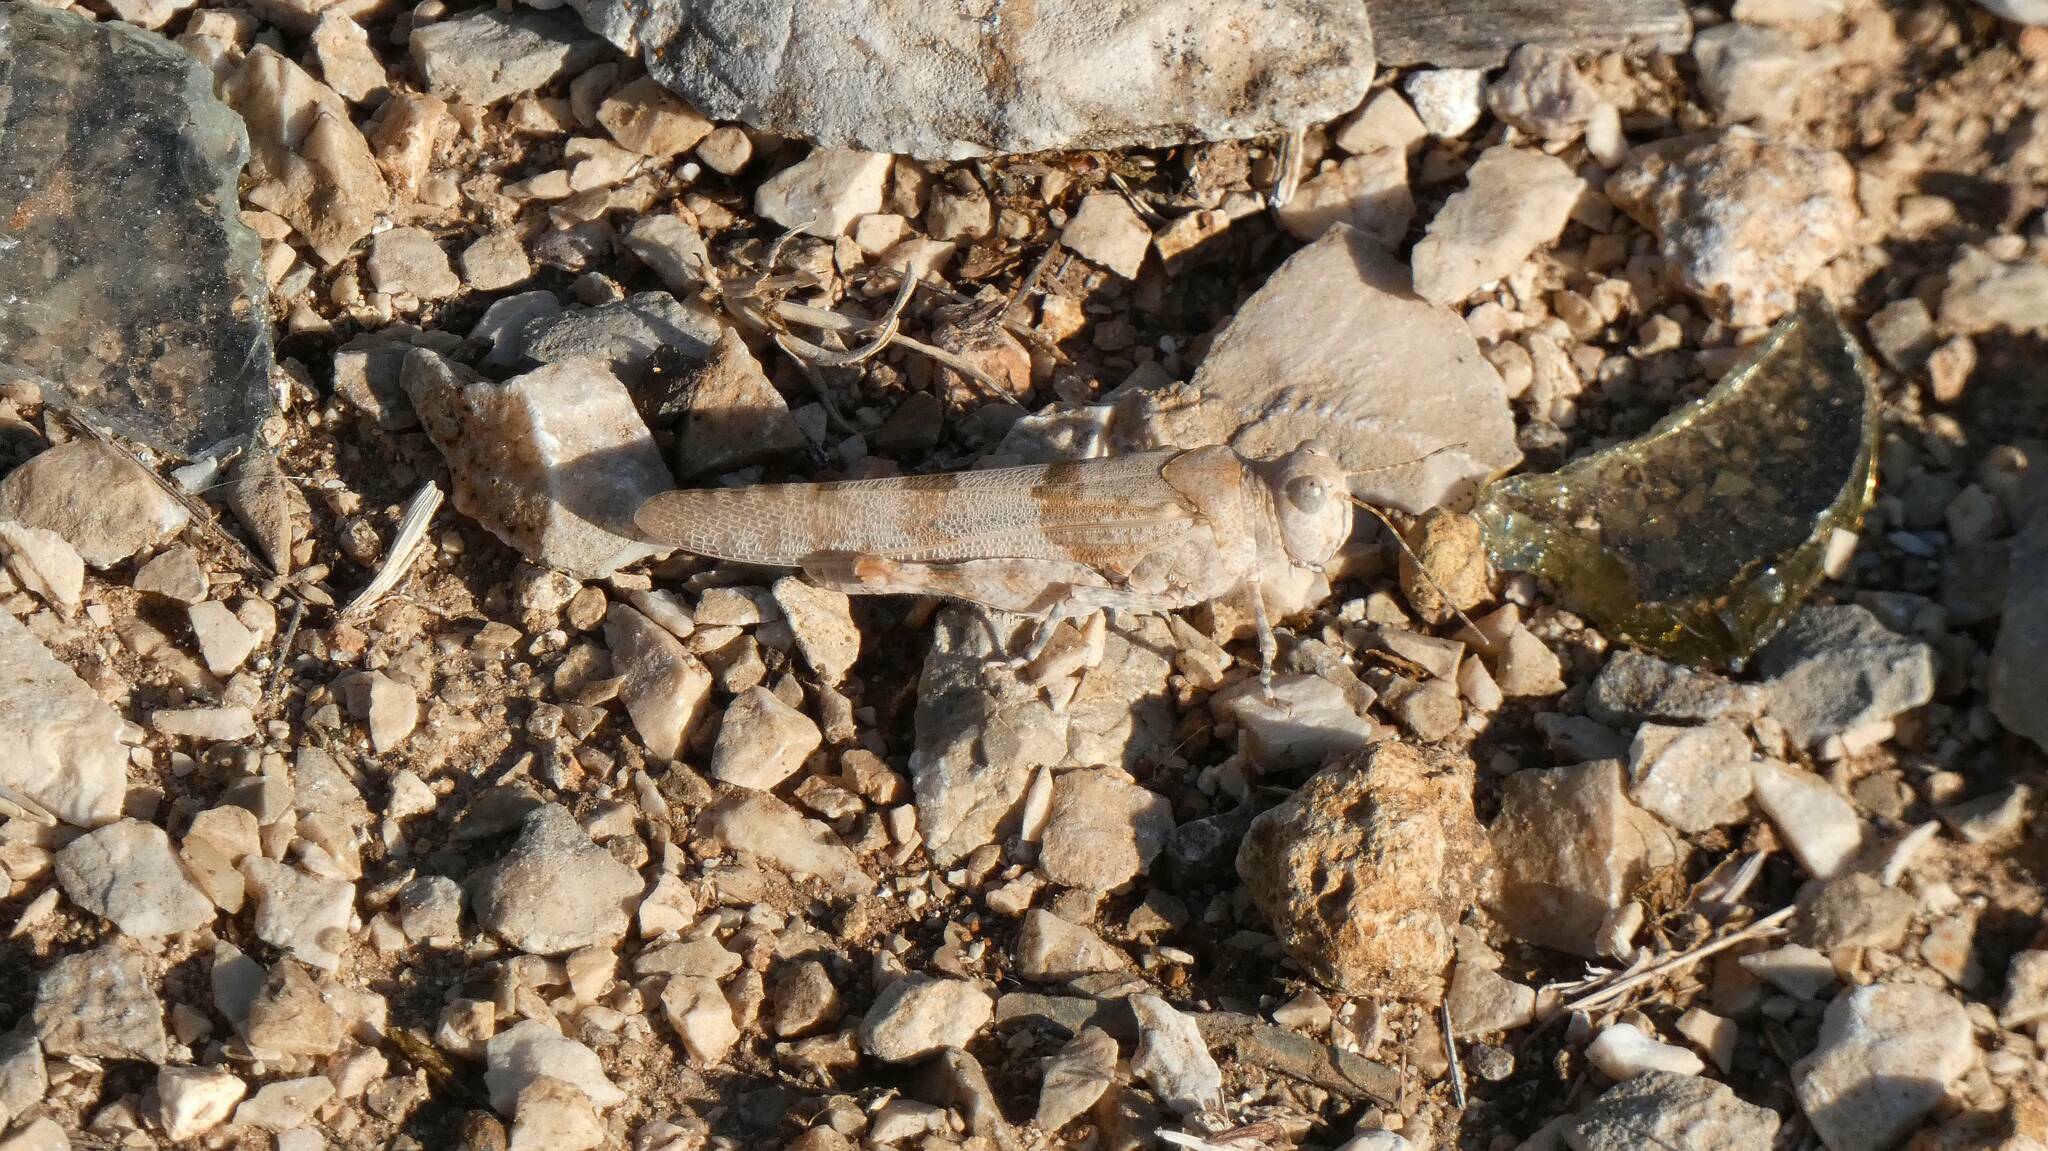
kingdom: Animalia
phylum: Arthropoda
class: Insecta
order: Orthoptera
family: Acrididae
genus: Sphingonotus
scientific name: Sphingonotus caerulans
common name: Blue-winged locust
